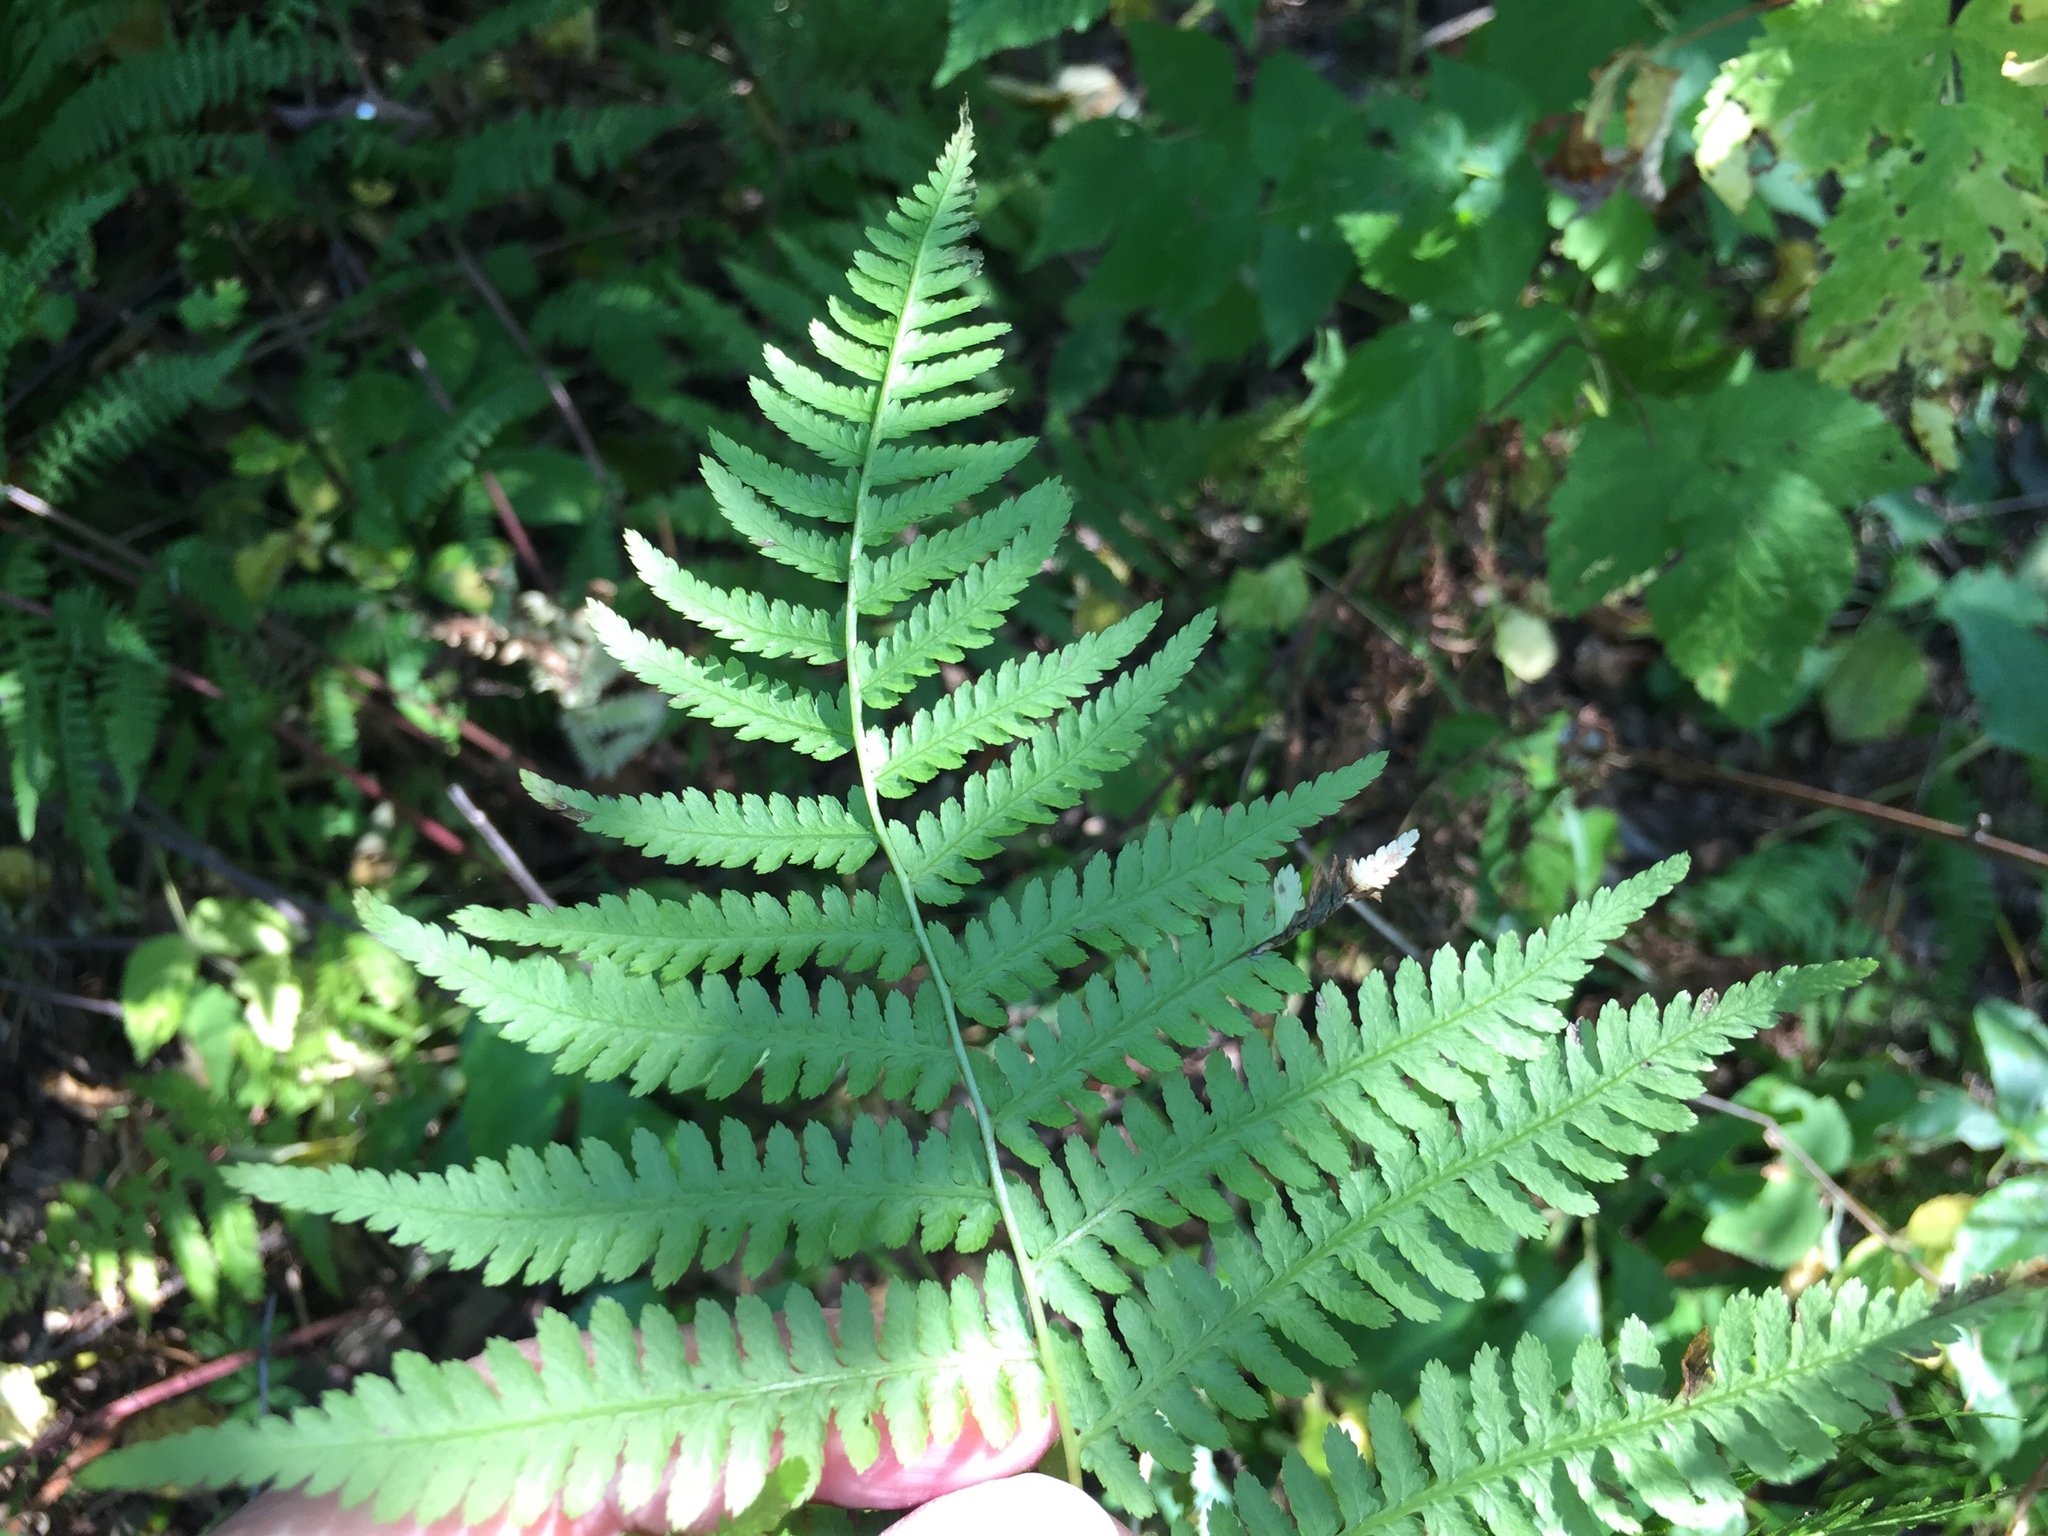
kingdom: Plantae
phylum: Tracheophyta
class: Polypodiopsida
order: Polypodiales
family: Athyriaceae
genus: Athyrium
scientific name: Athyrium angustum
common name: Northern lady fern
